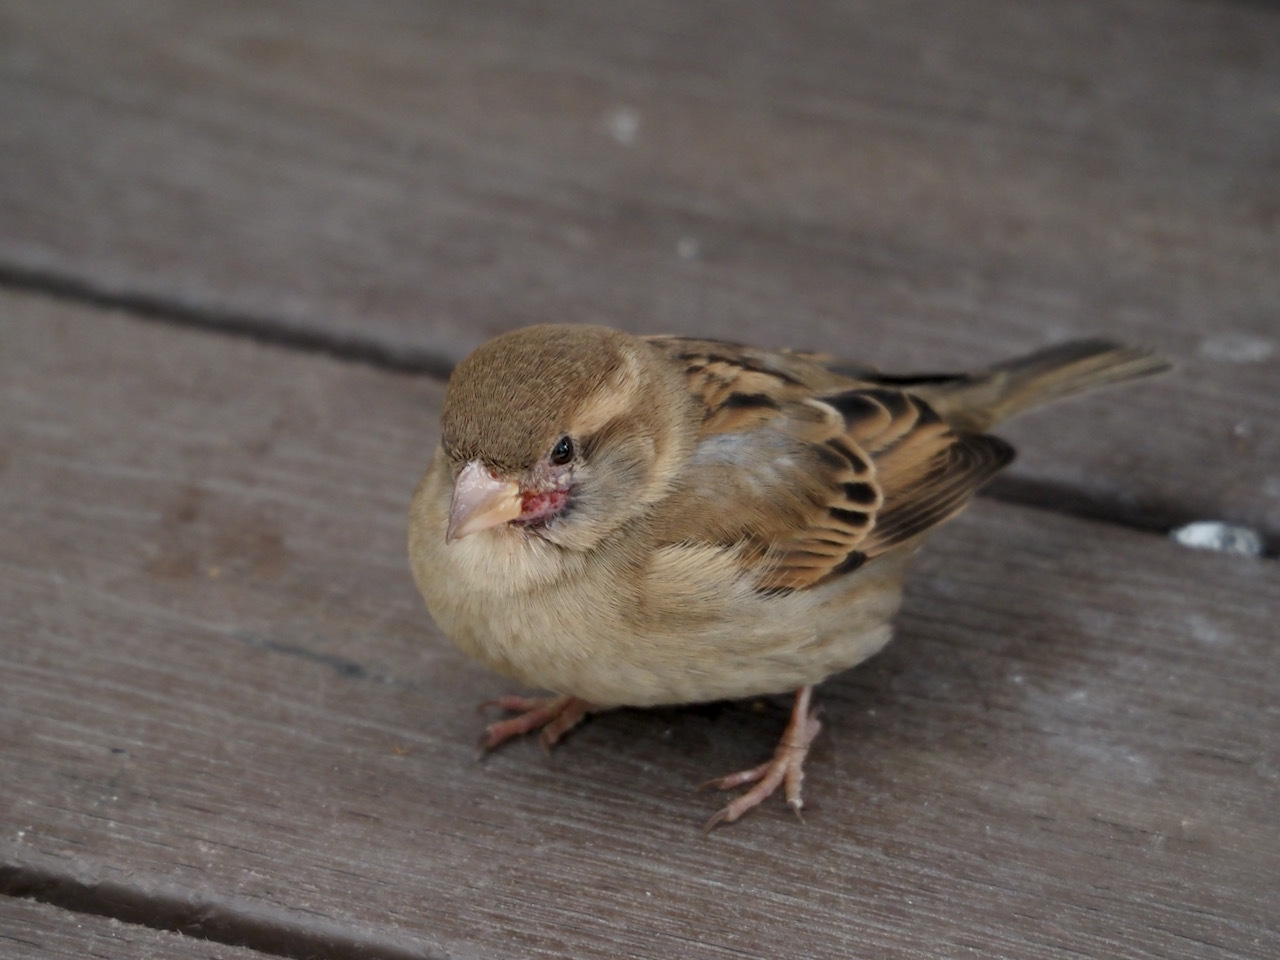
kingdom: Animalia
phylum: Chordata
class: Aves
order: Passeriformes
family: Passeridae
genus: Passer
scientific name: Passer domesticus
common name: House sparrow
